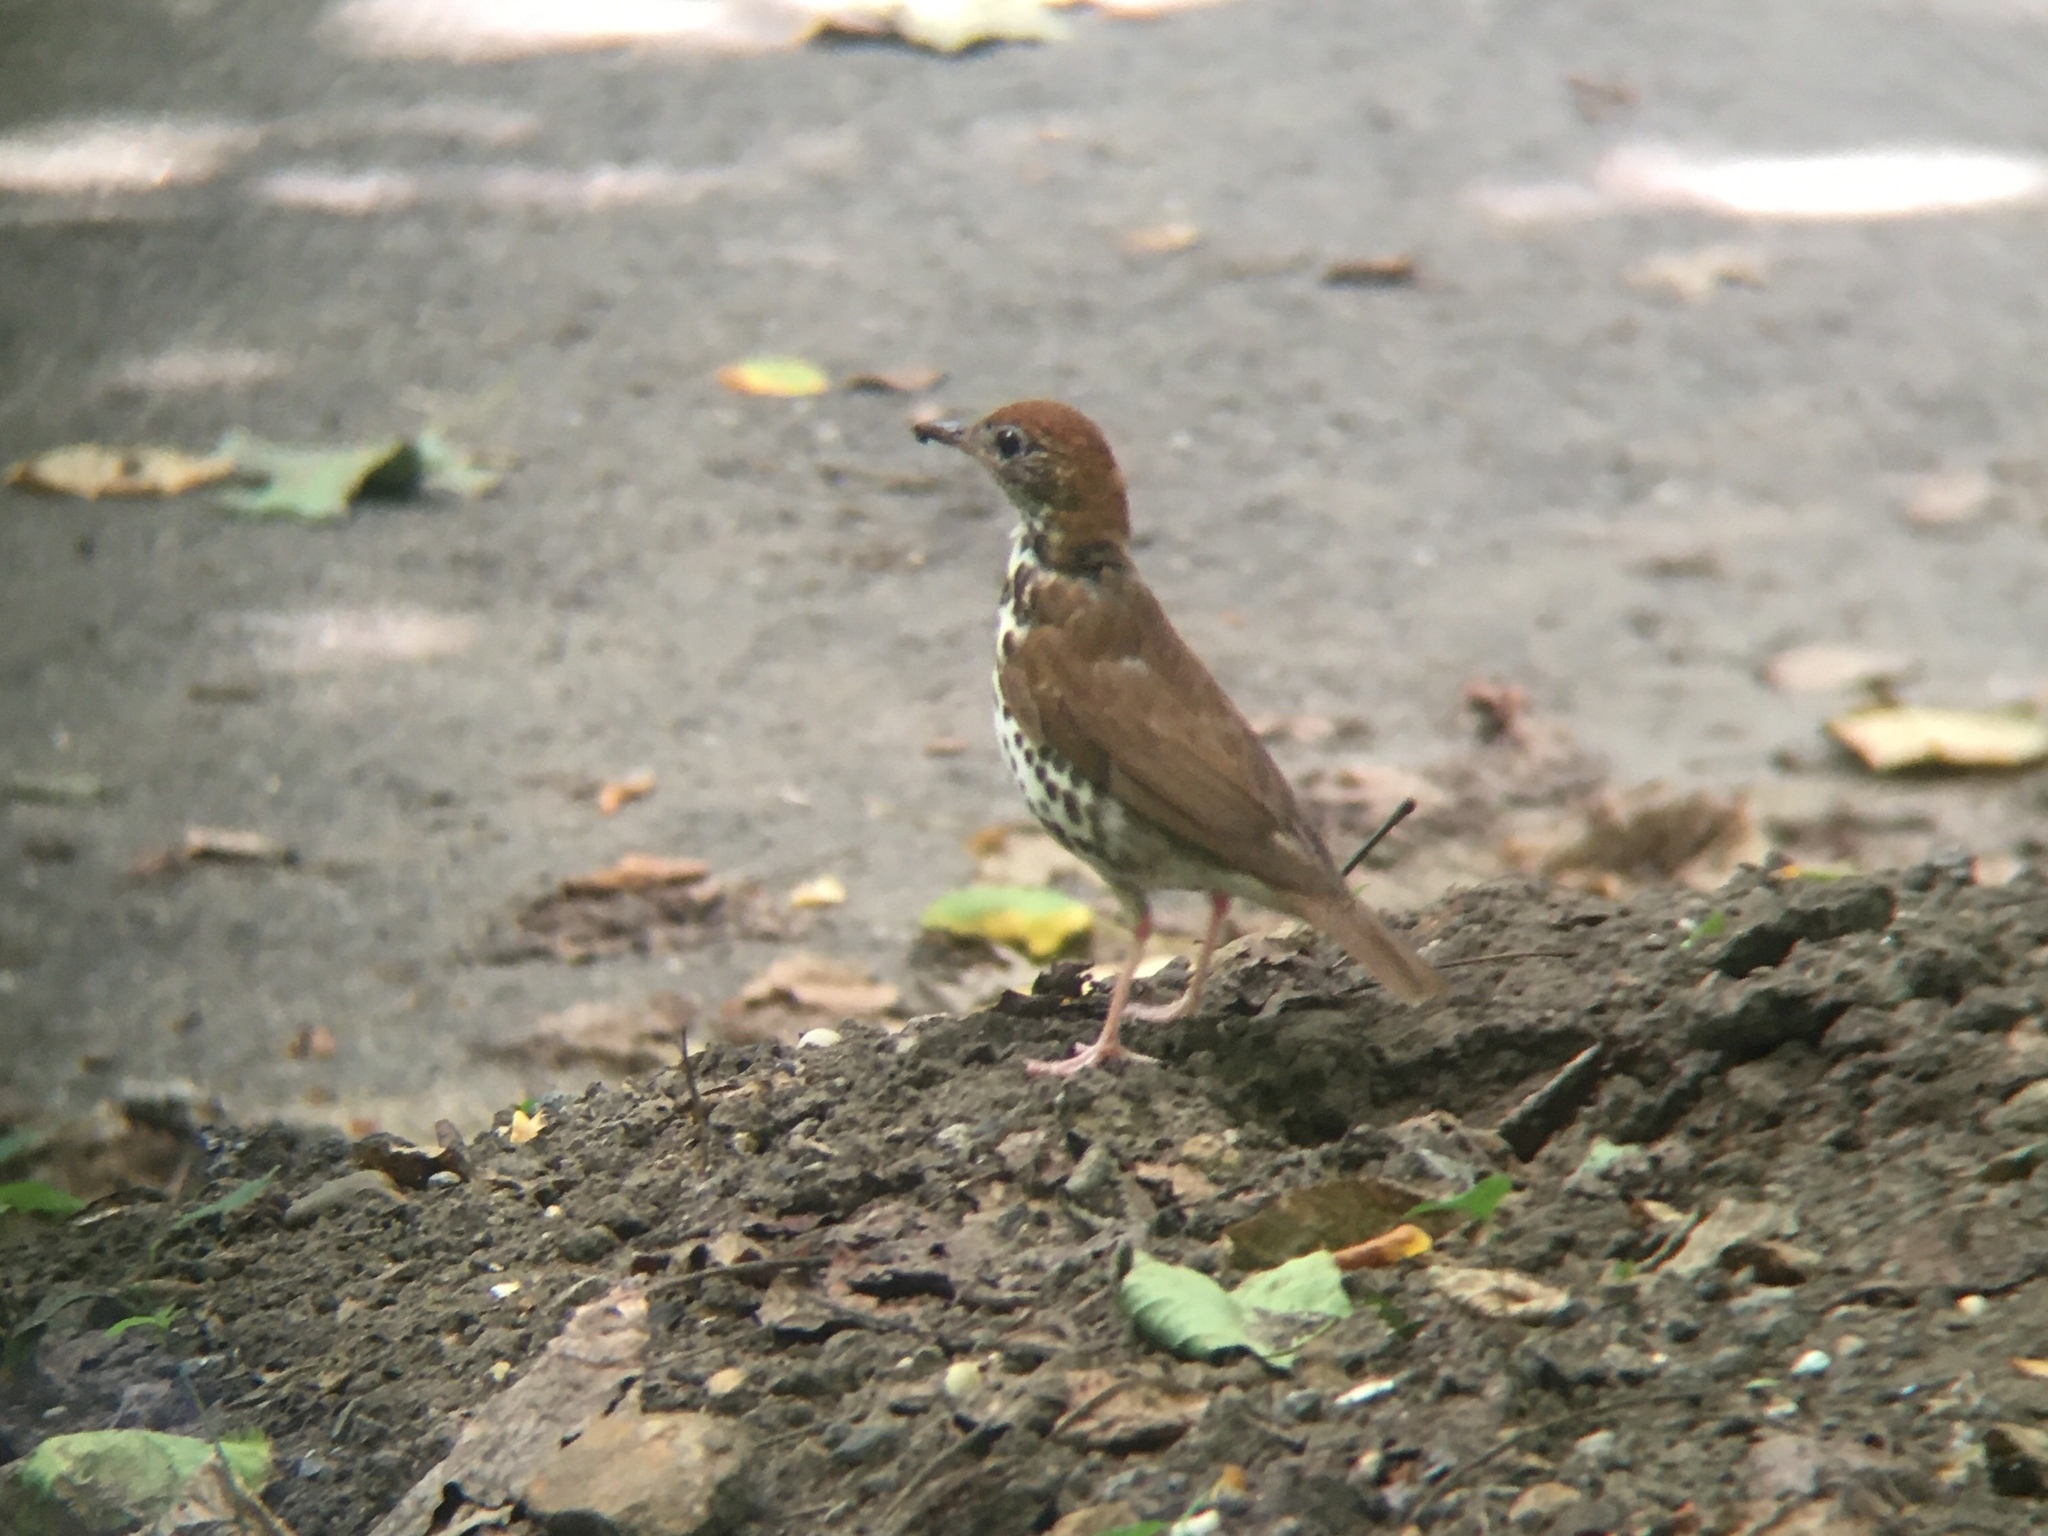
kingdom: Animalia
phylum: Chordata
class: Aves
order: Passeriformes
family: Turdidae
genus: Hylocichla
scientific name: Hylocichla mustelina
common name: Wood thrush
